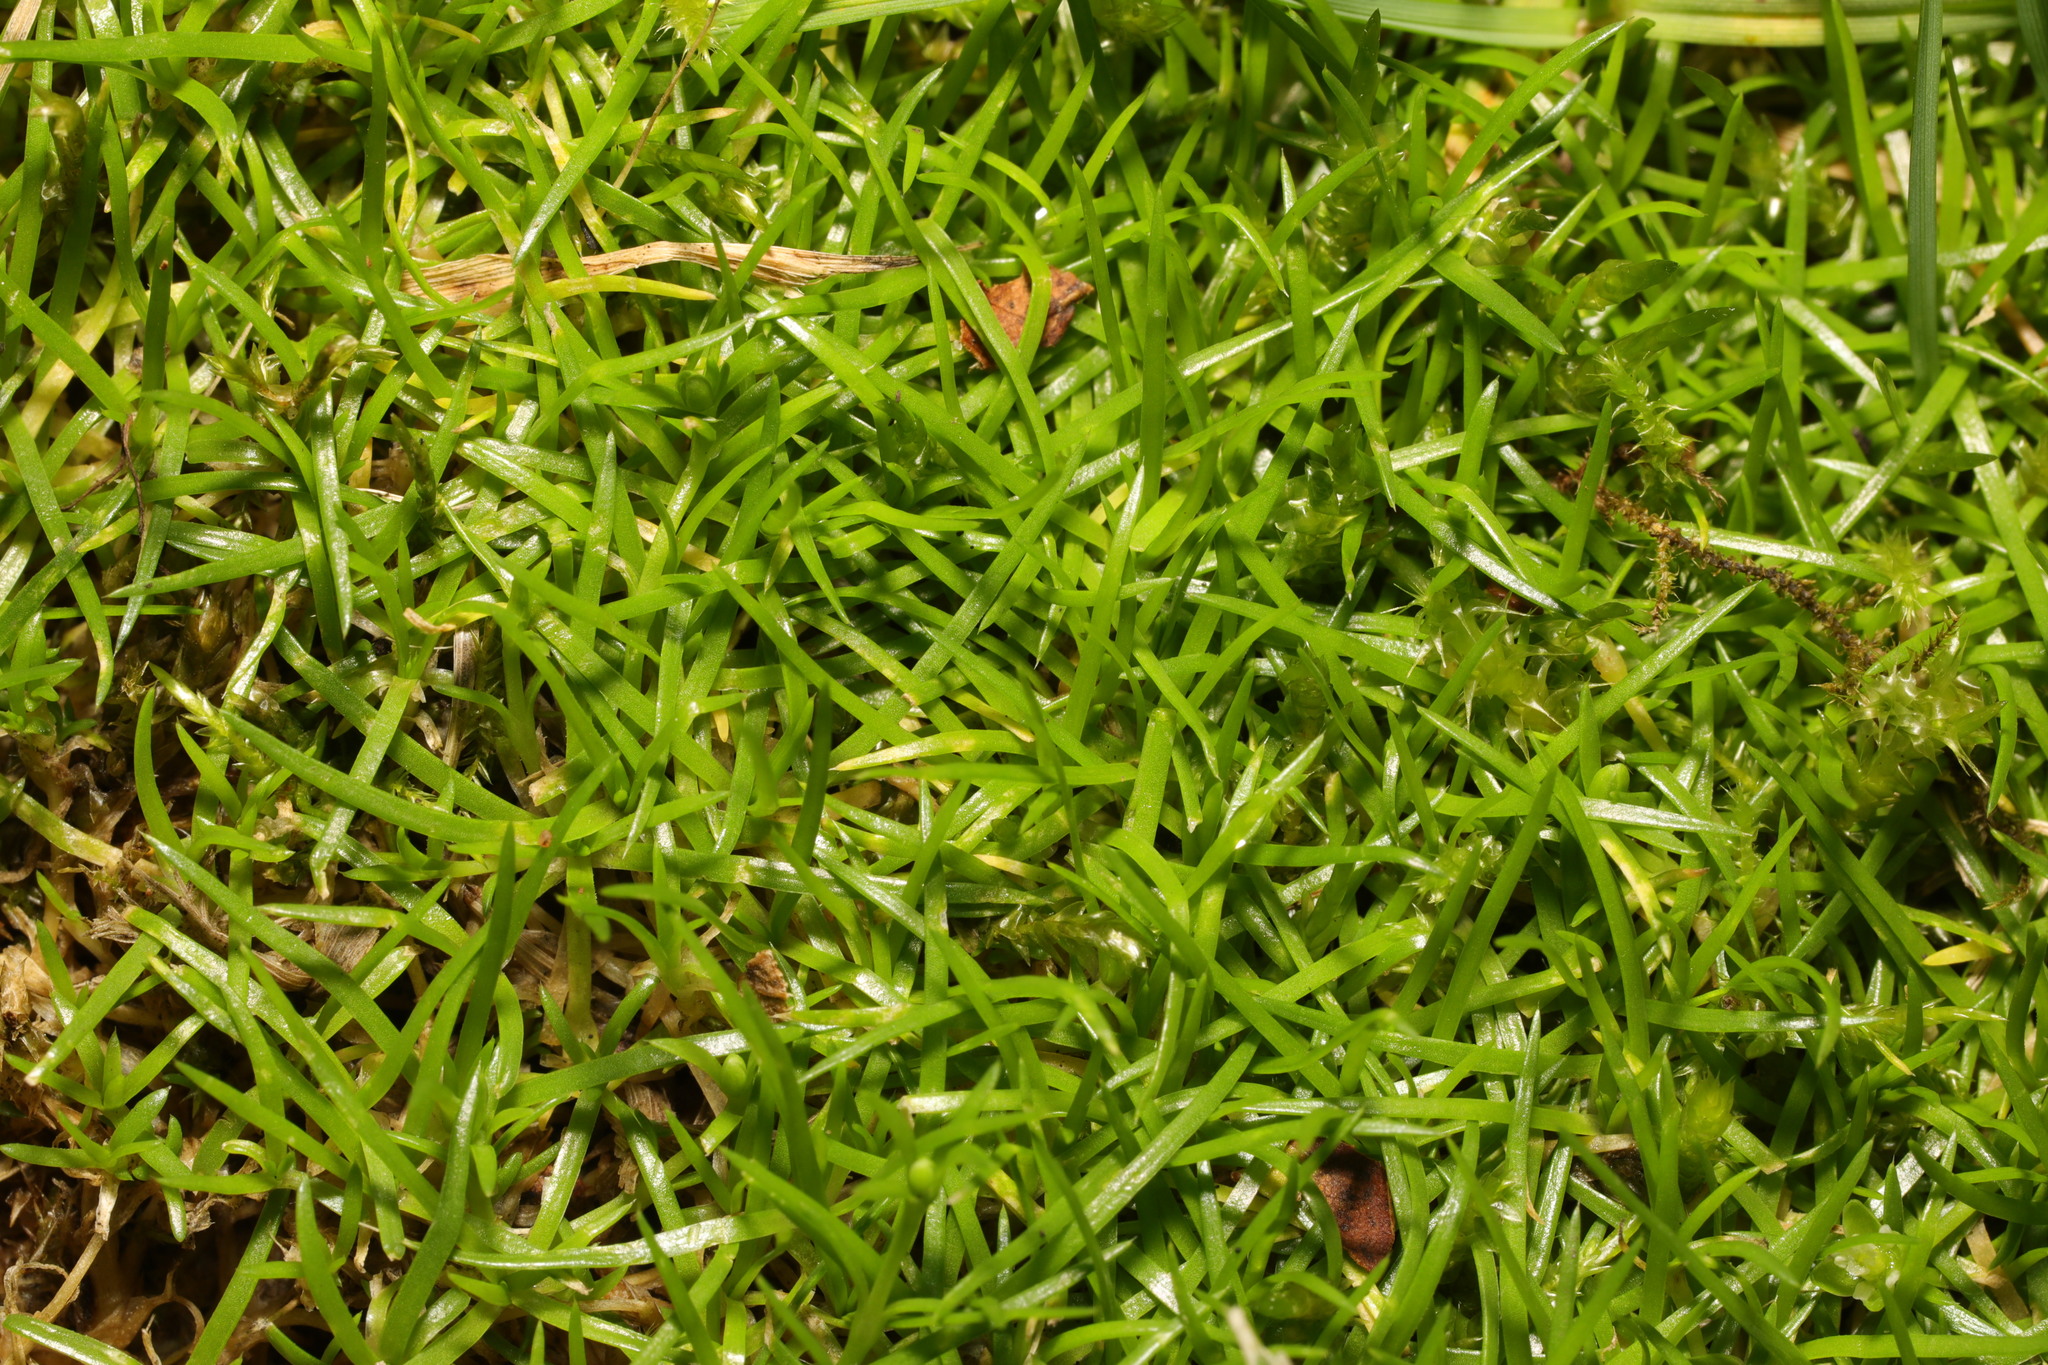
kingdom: Plantae
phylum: Tracheophyta
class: Magnoliopsida
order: Caryophyllales
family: Caryophyllaceae
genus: Sagina
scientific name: Sagina procumbens
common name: Procumbent pearlwort
